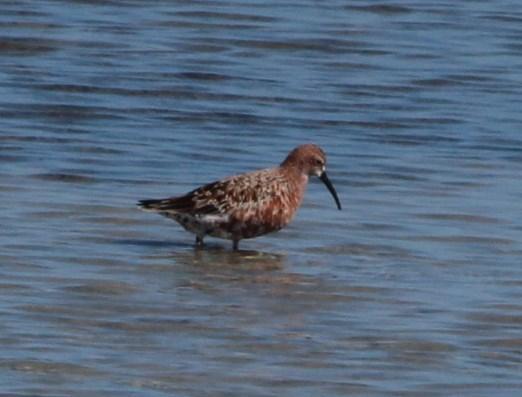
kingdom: Animalia
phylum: Chordata
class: Aves
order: Charadriiformes
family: Scolopacidae
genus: Calidris
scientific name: Calidris ferruginea
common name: Curlew sandpiper
